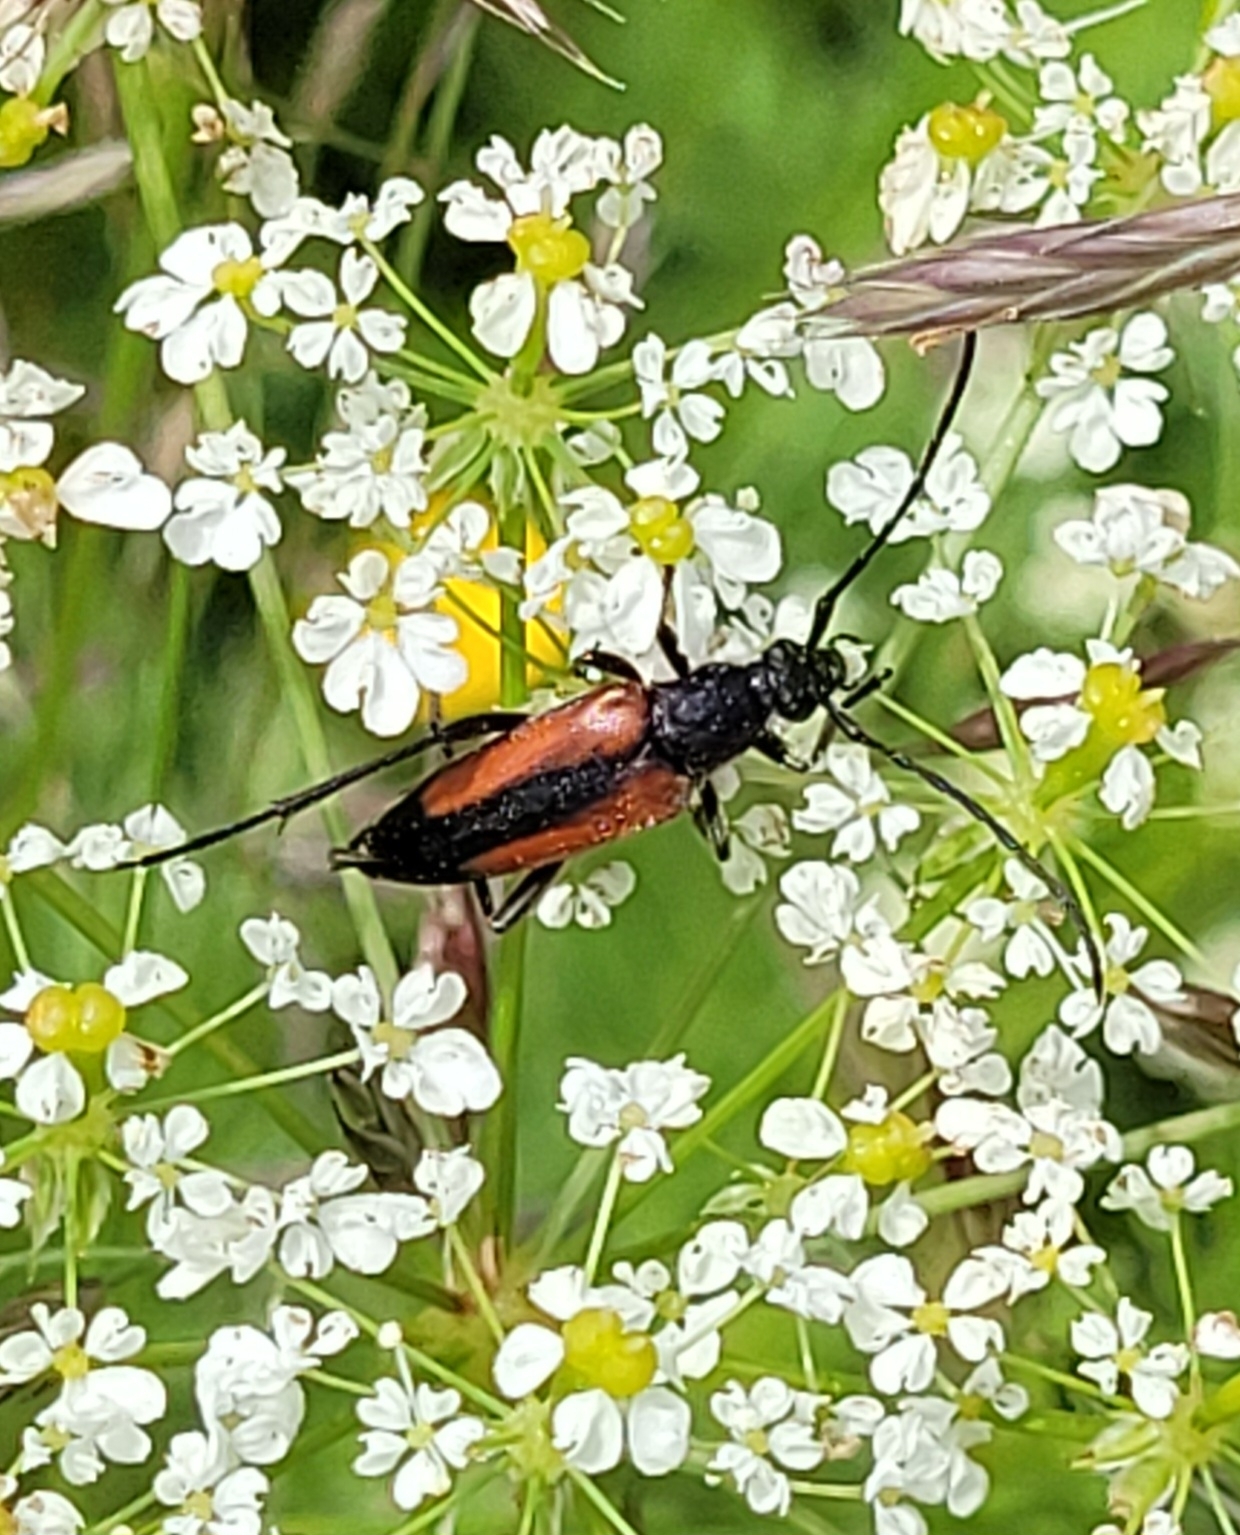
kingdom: Animalia
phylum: Arthropoda
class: Insecta
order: Coleoptera
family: Cerambycidae
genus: Stenurella
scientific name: Stenurella melanura
